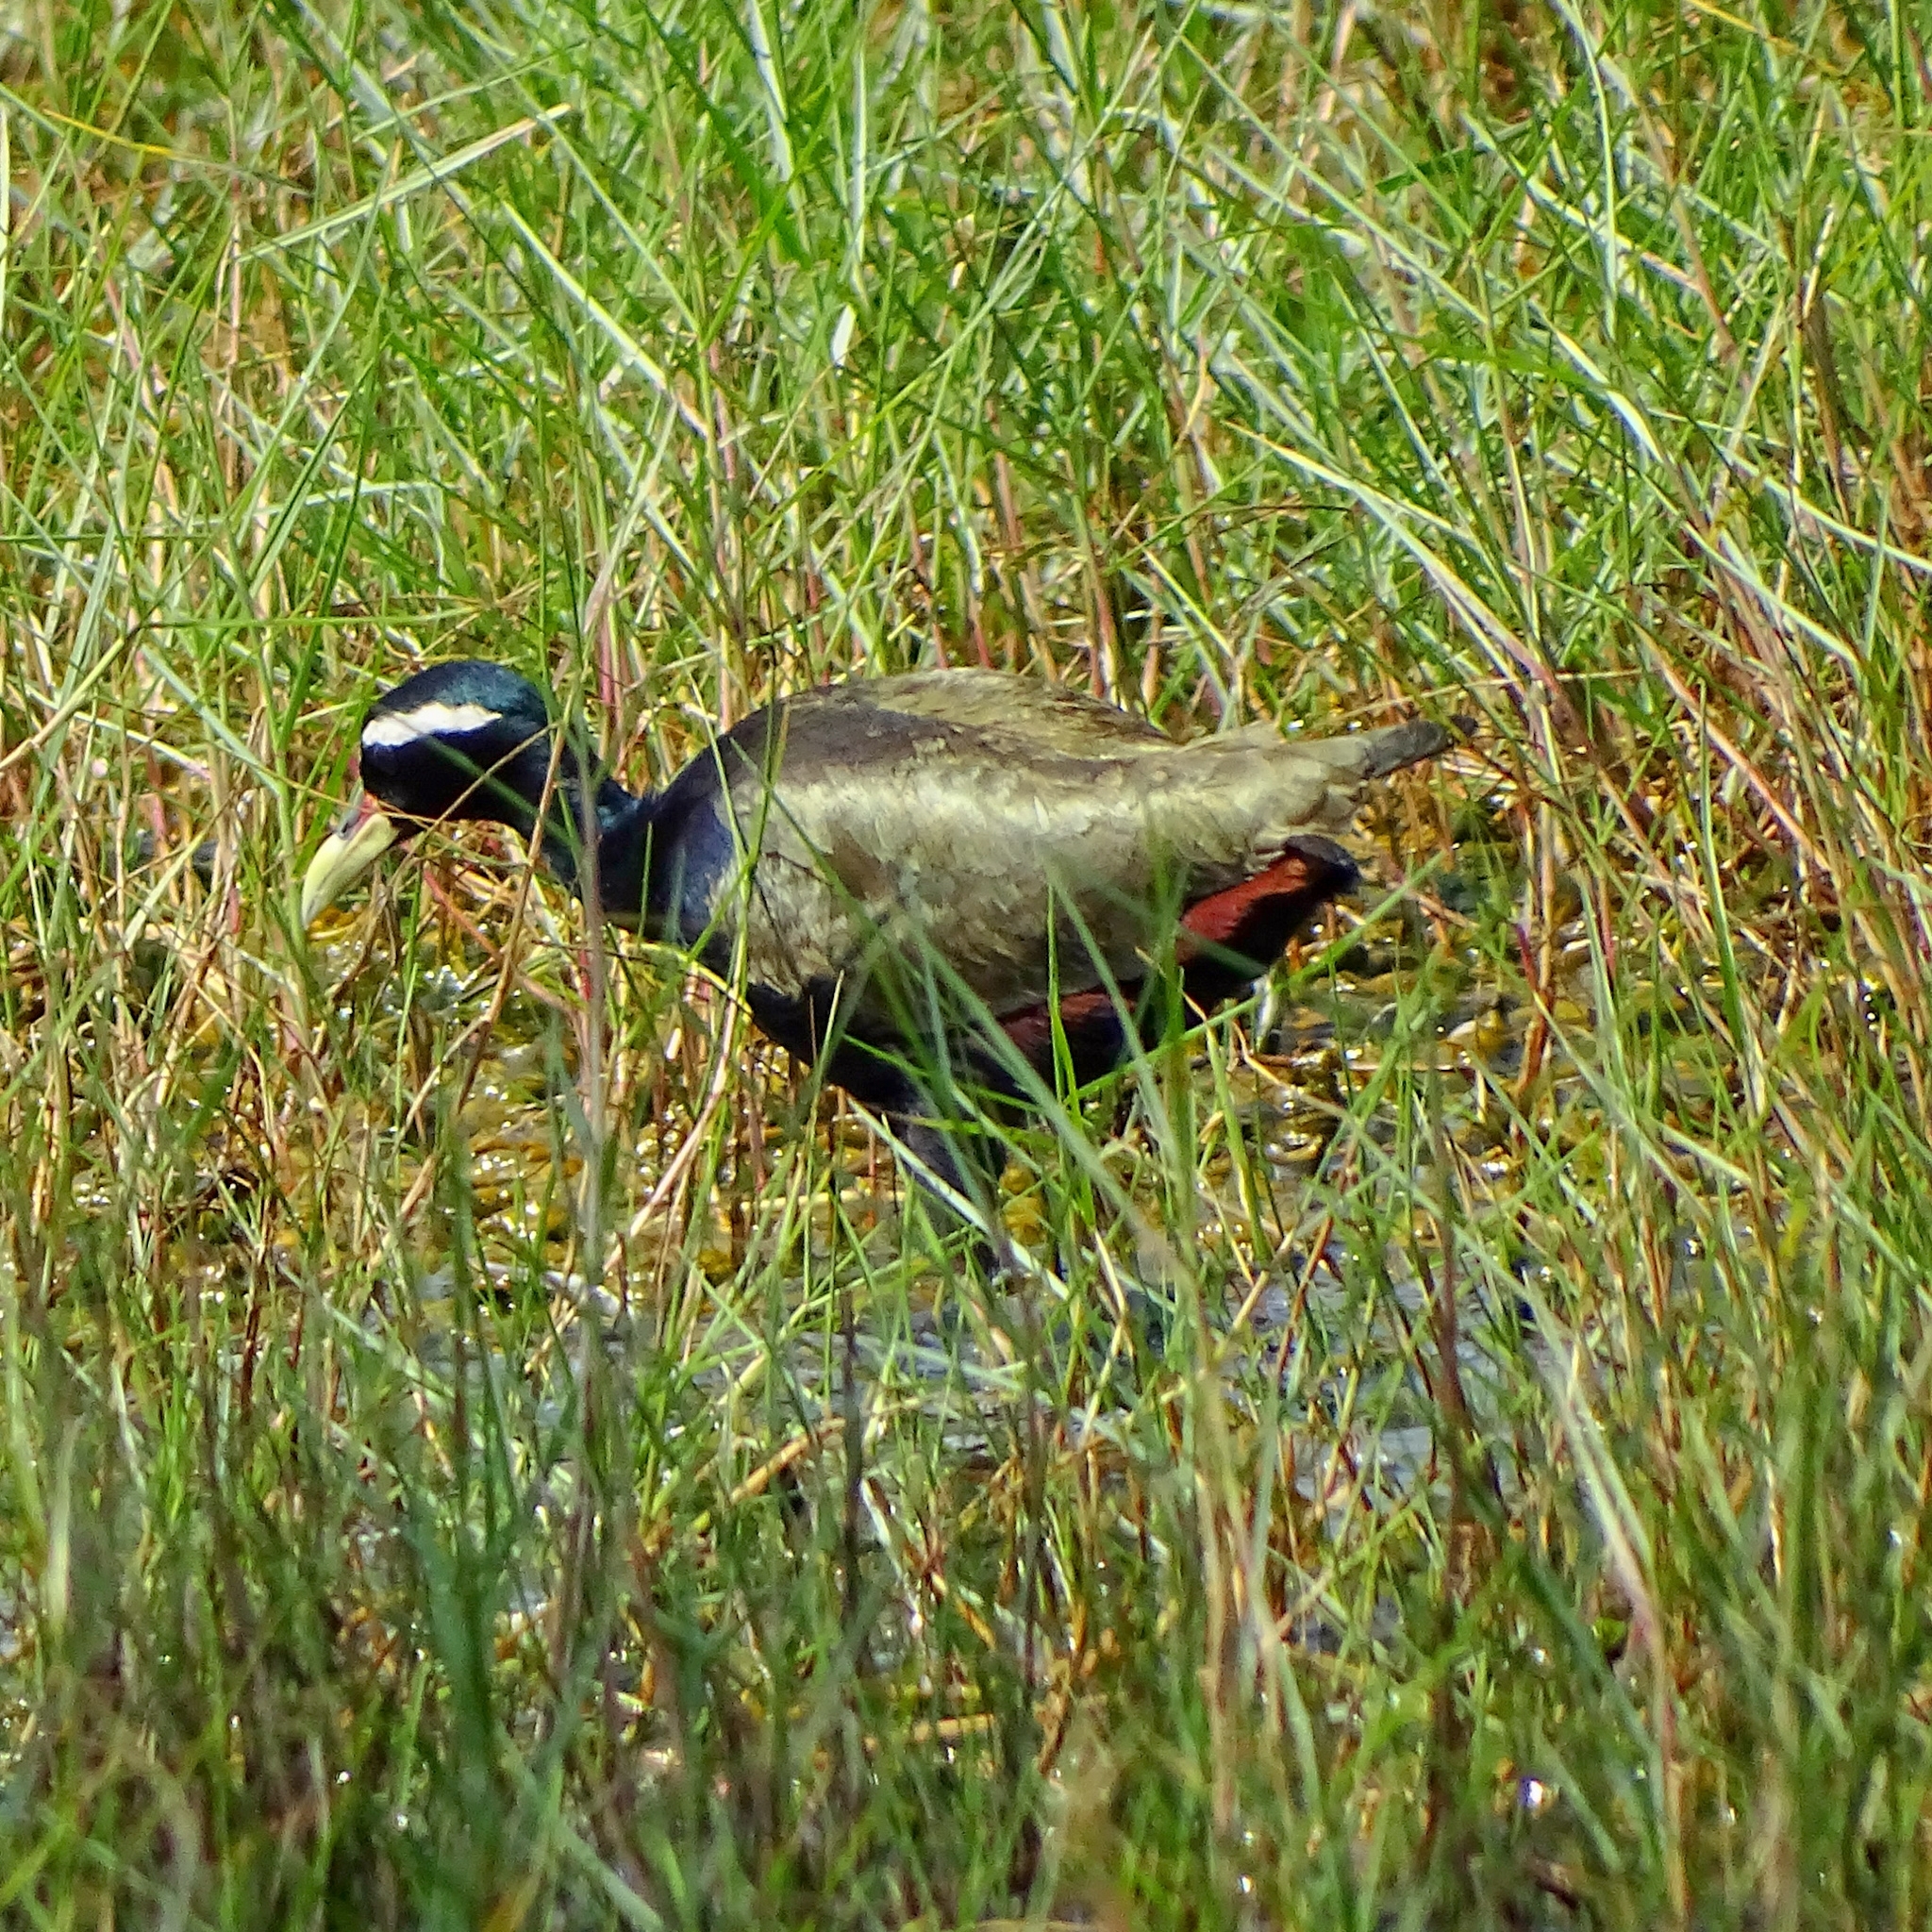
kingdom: Animalia
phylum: Chordata
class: Aves
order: Charadriiformes
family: Jacanidae
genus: Metopidius
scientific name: Metopidius indicus
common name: Bronze-winged jacana
